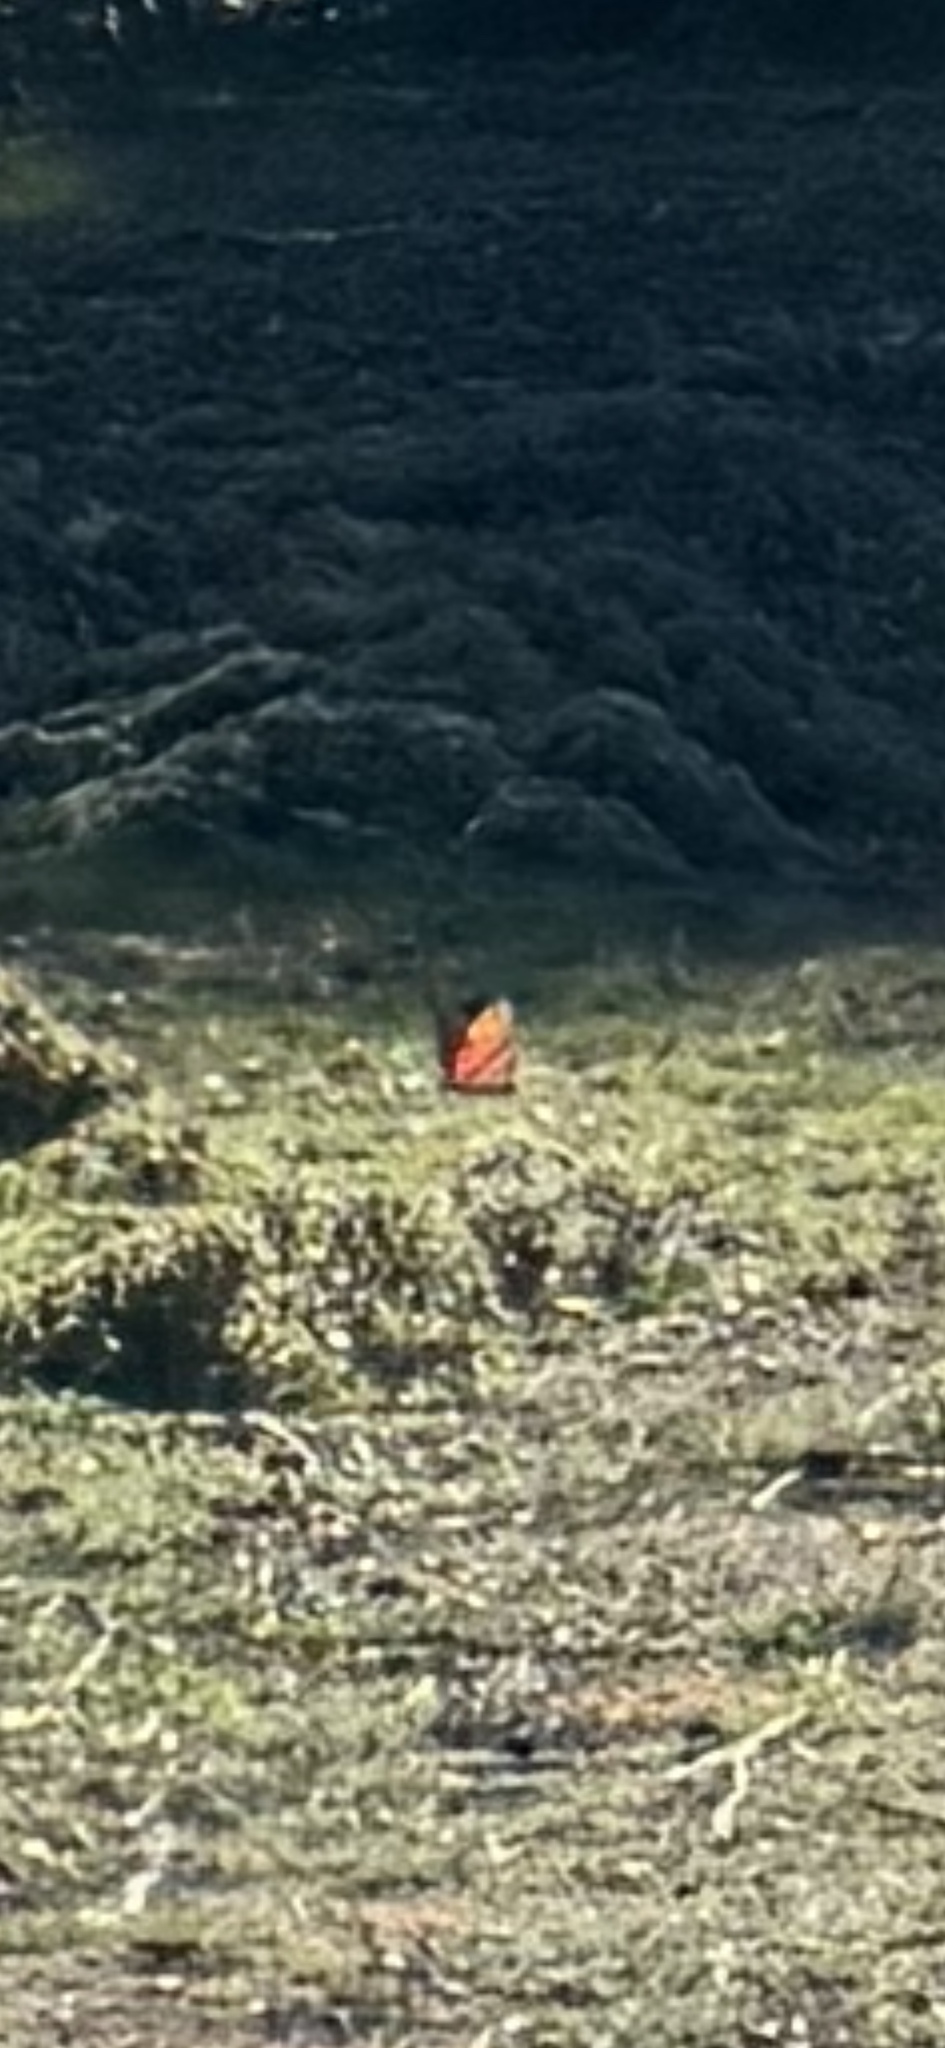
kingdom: Animalia
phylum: Arthropoda
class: Insecta
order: Lepidoptera
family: Nymphalidae
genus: Danaus
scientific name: Danaus gilippus
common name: Queen
